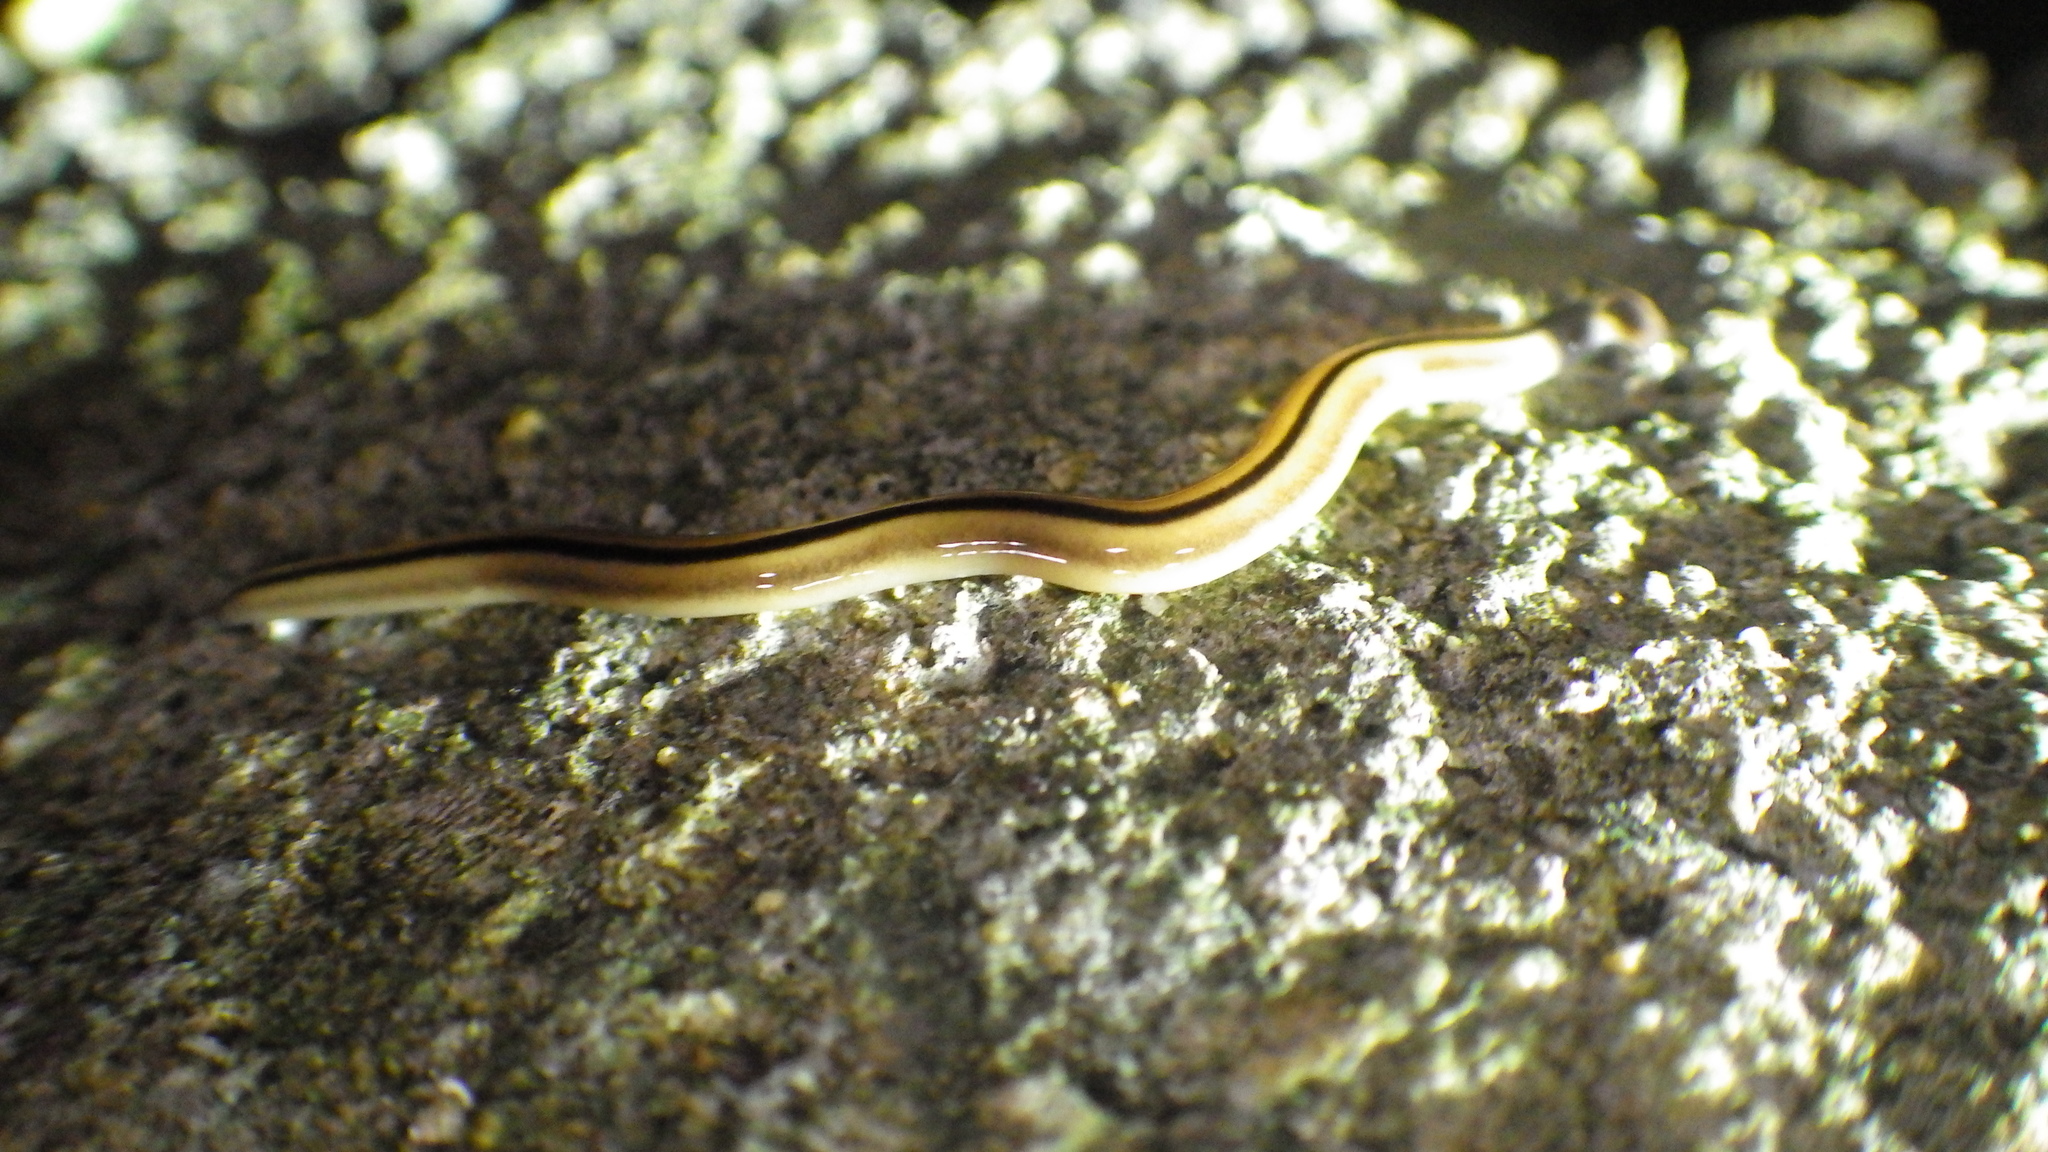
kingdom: Animalia
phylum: Platyhelminthes
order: Tricladida
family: Geoplanidae
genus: Bipalium
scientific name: Bipalium vagum
